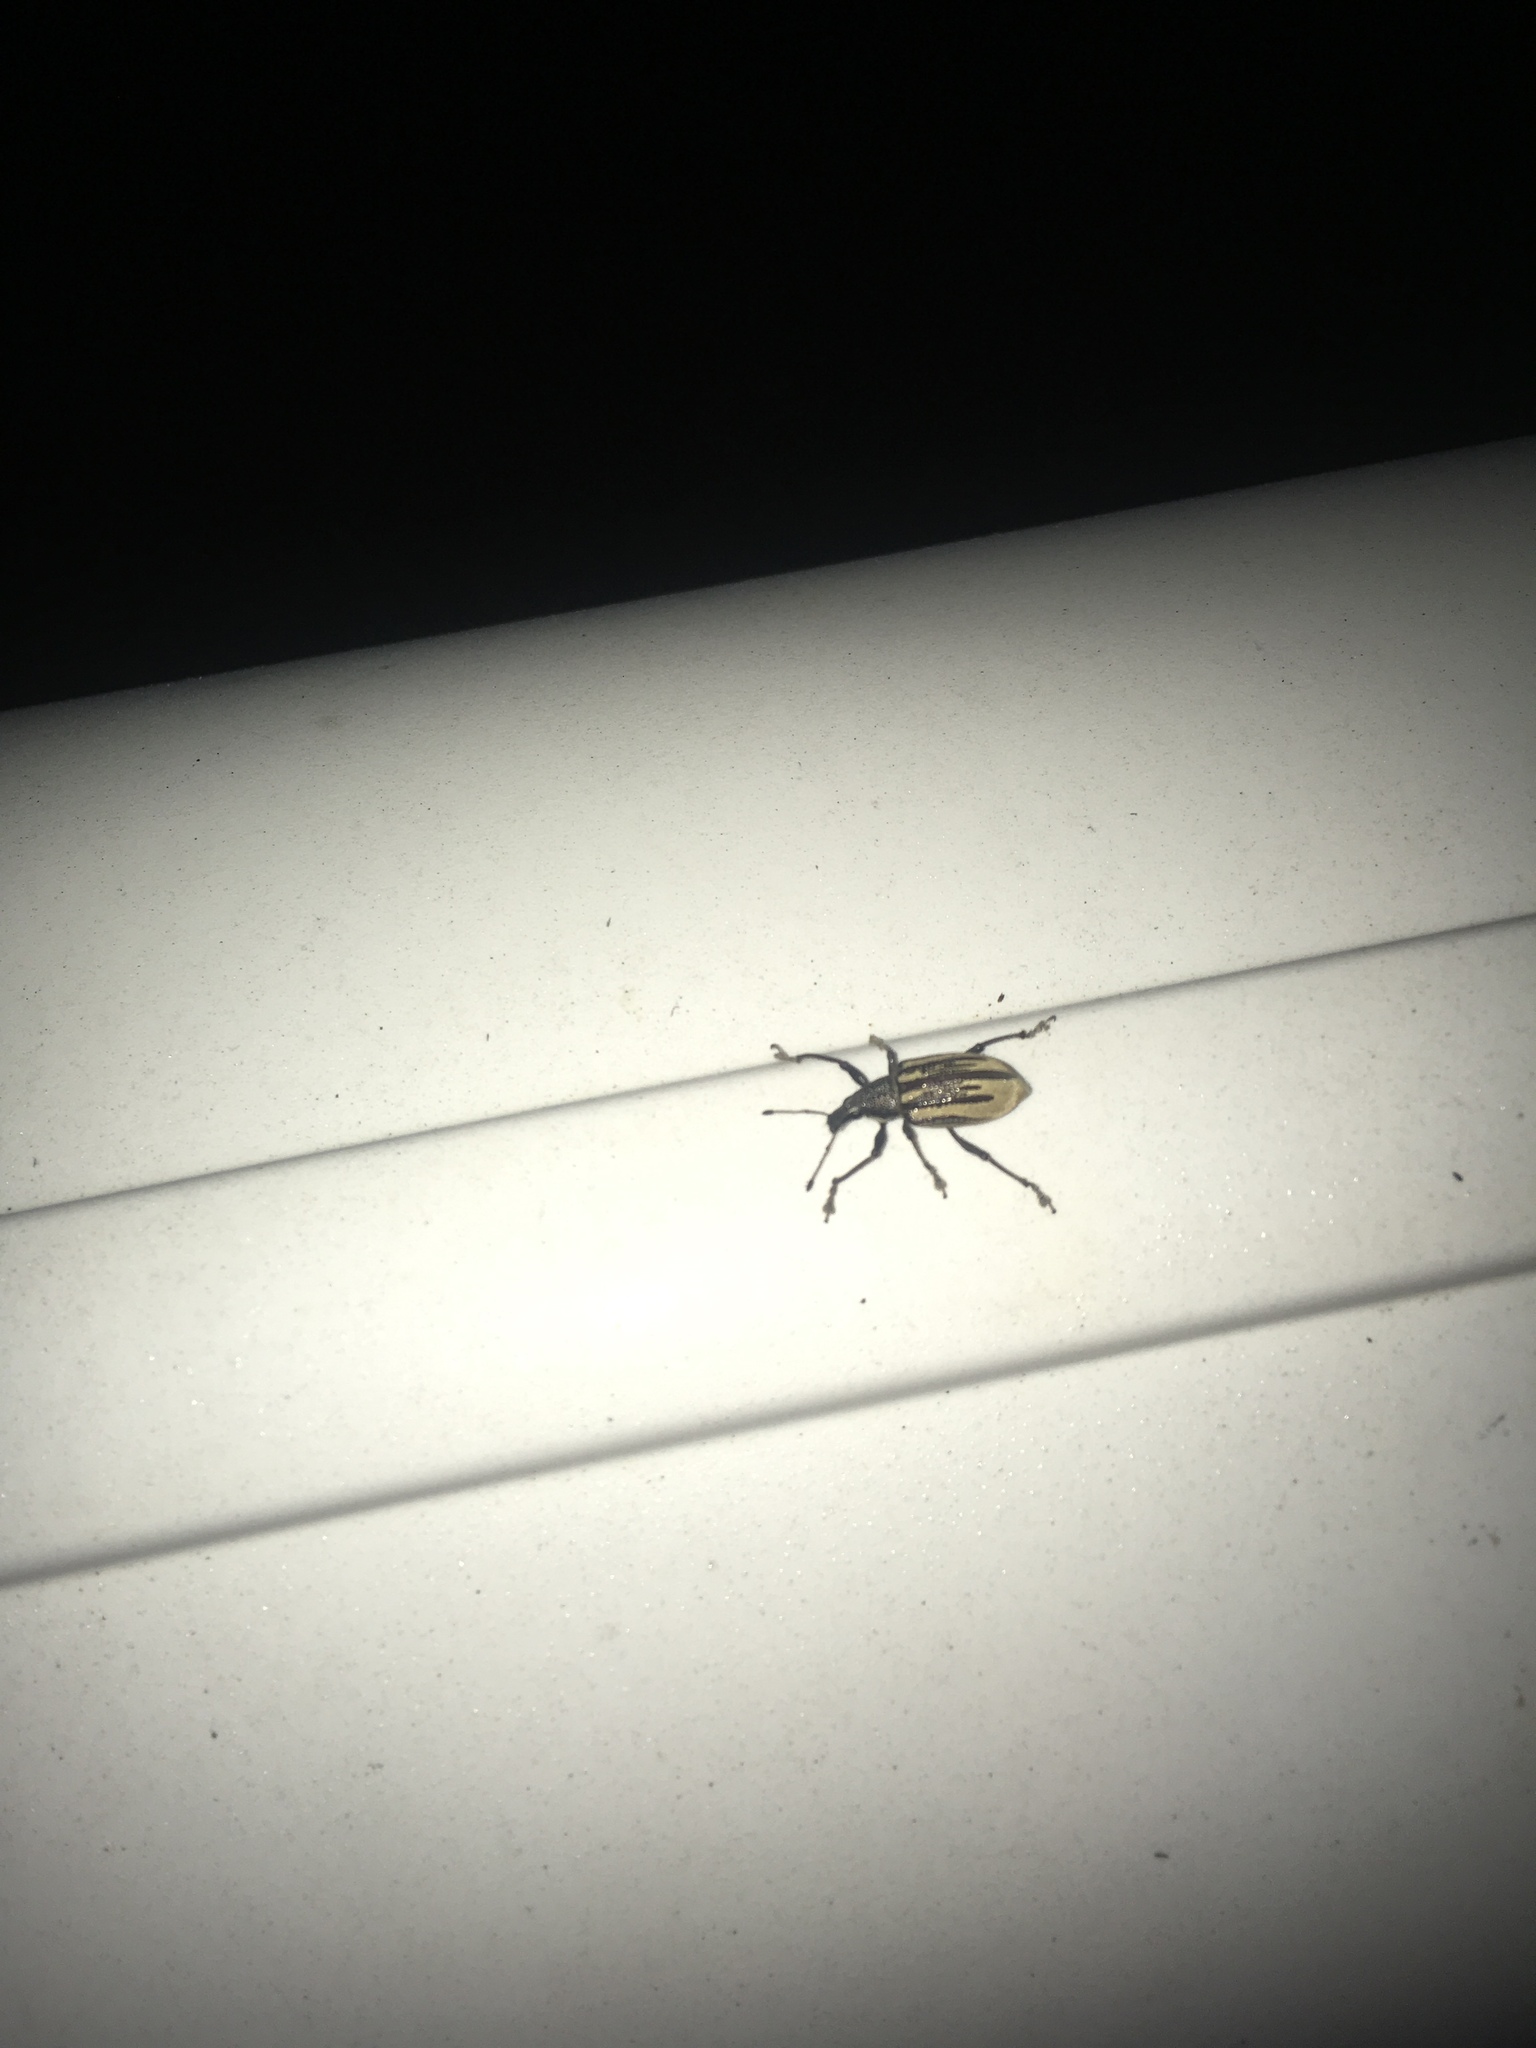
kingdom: Animalia
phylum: Arthropoda
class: Insecta
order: Coleoptera
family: Curculionidae
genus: Diaprepes
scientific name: Diaprepes abbreviatus
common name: Root weevil
